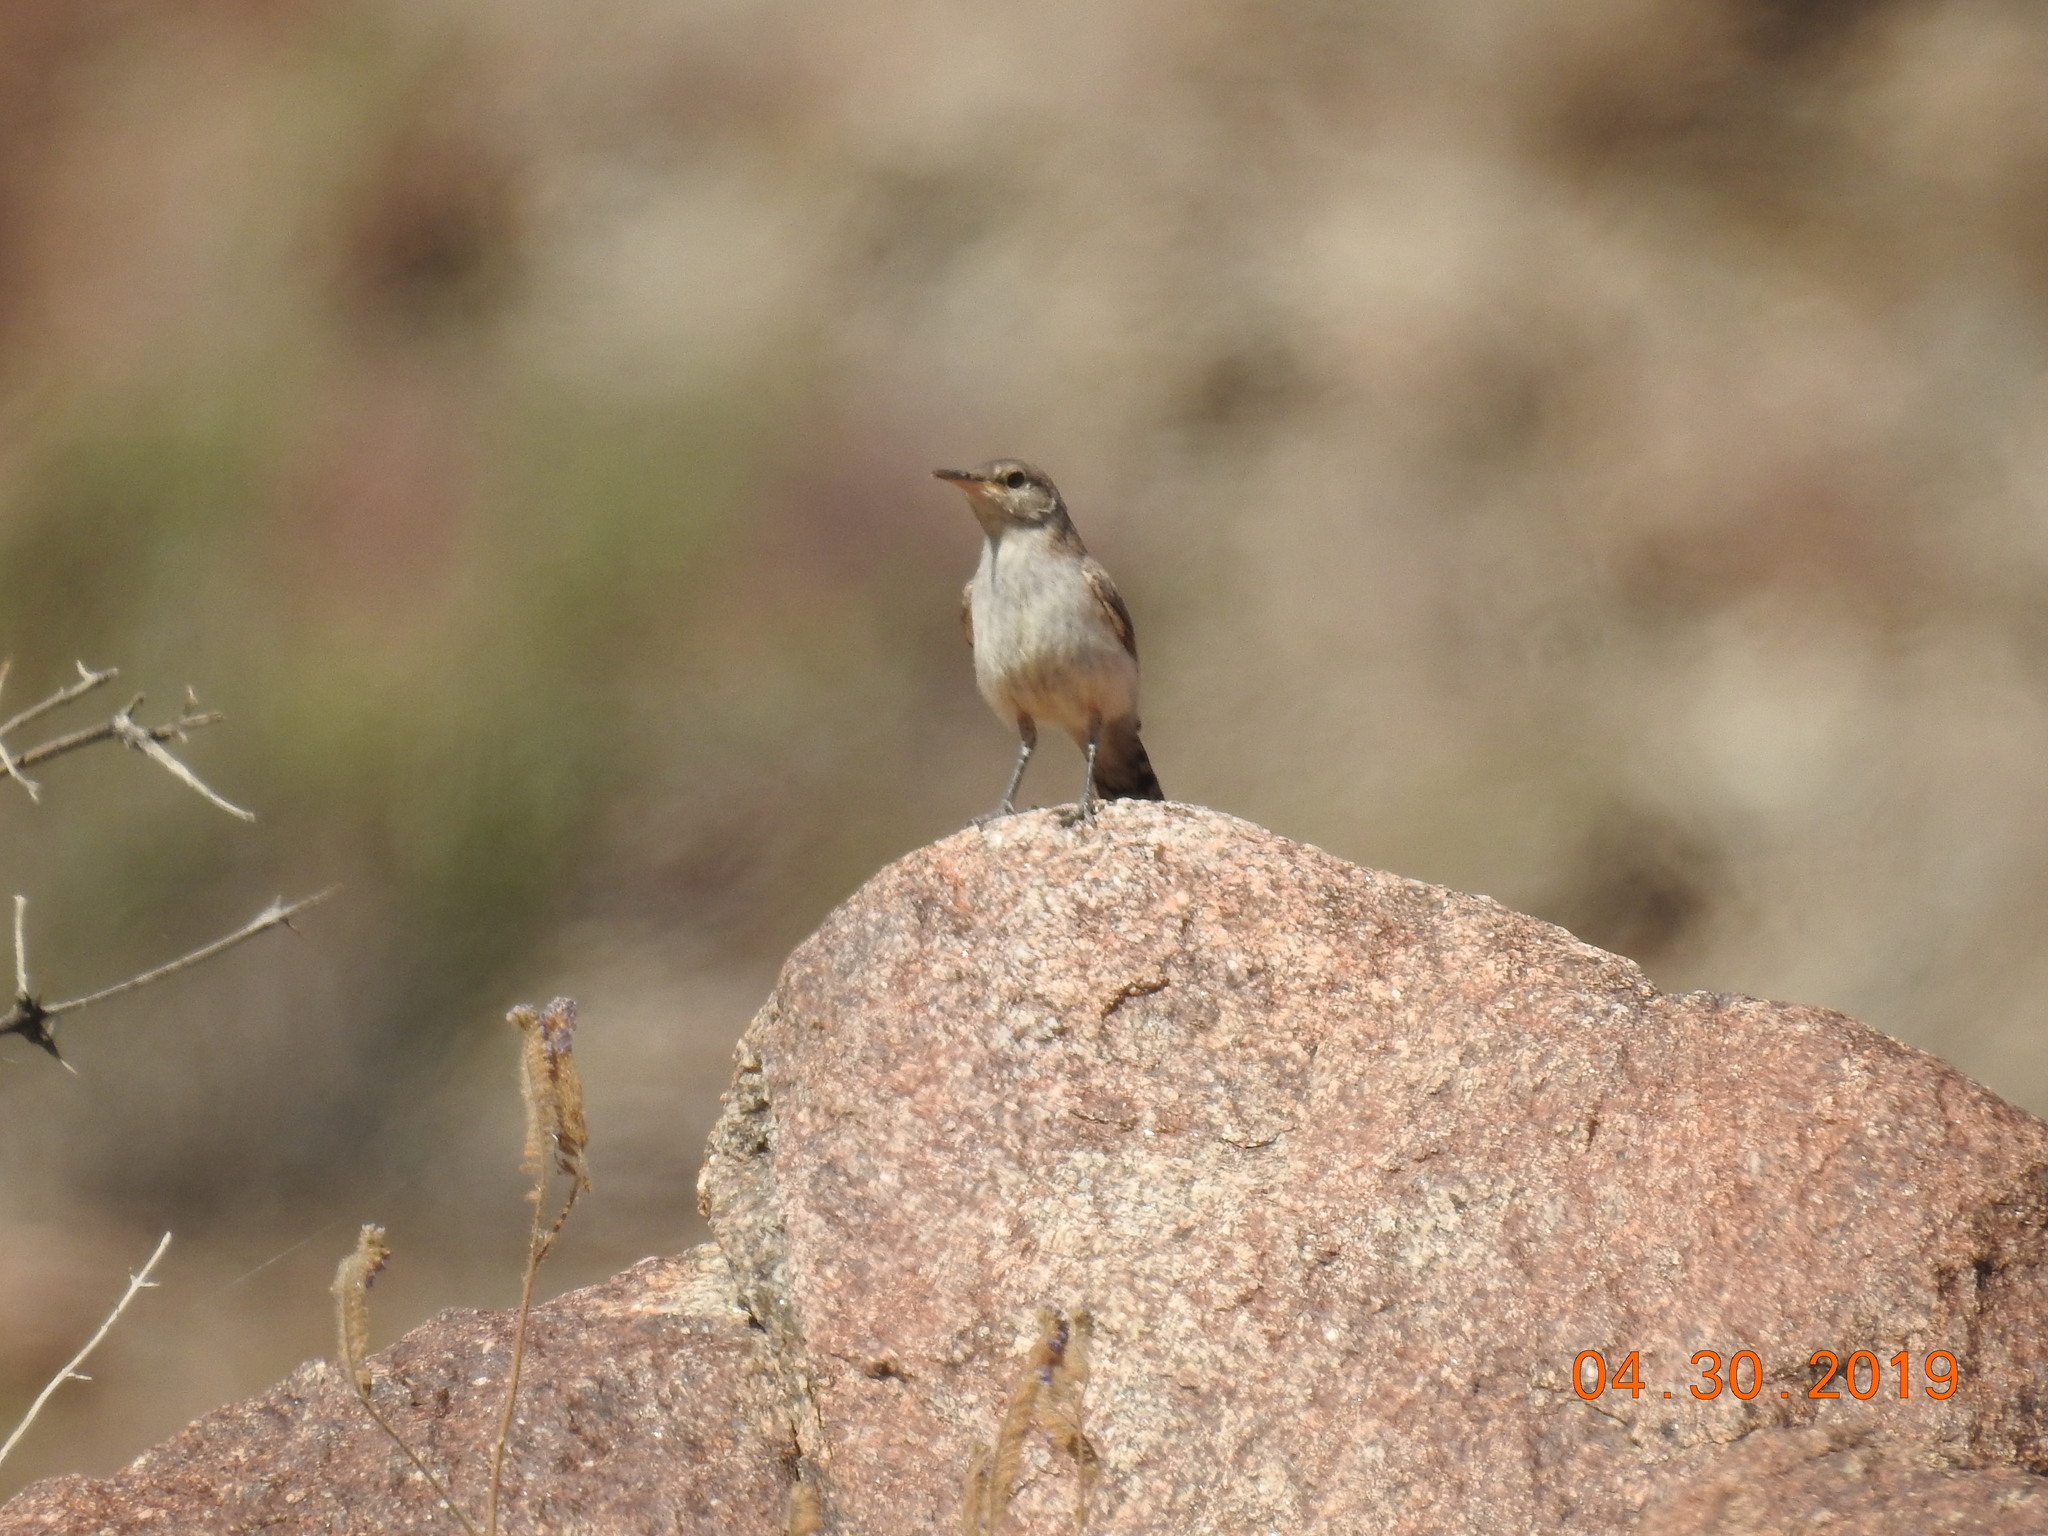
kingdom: Animalia
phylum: Chordata
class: Aves
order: Passeriformes
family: Troglodytidae
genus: Salpinctes
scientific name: Salpinctes obsoletus
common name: Rock wren
